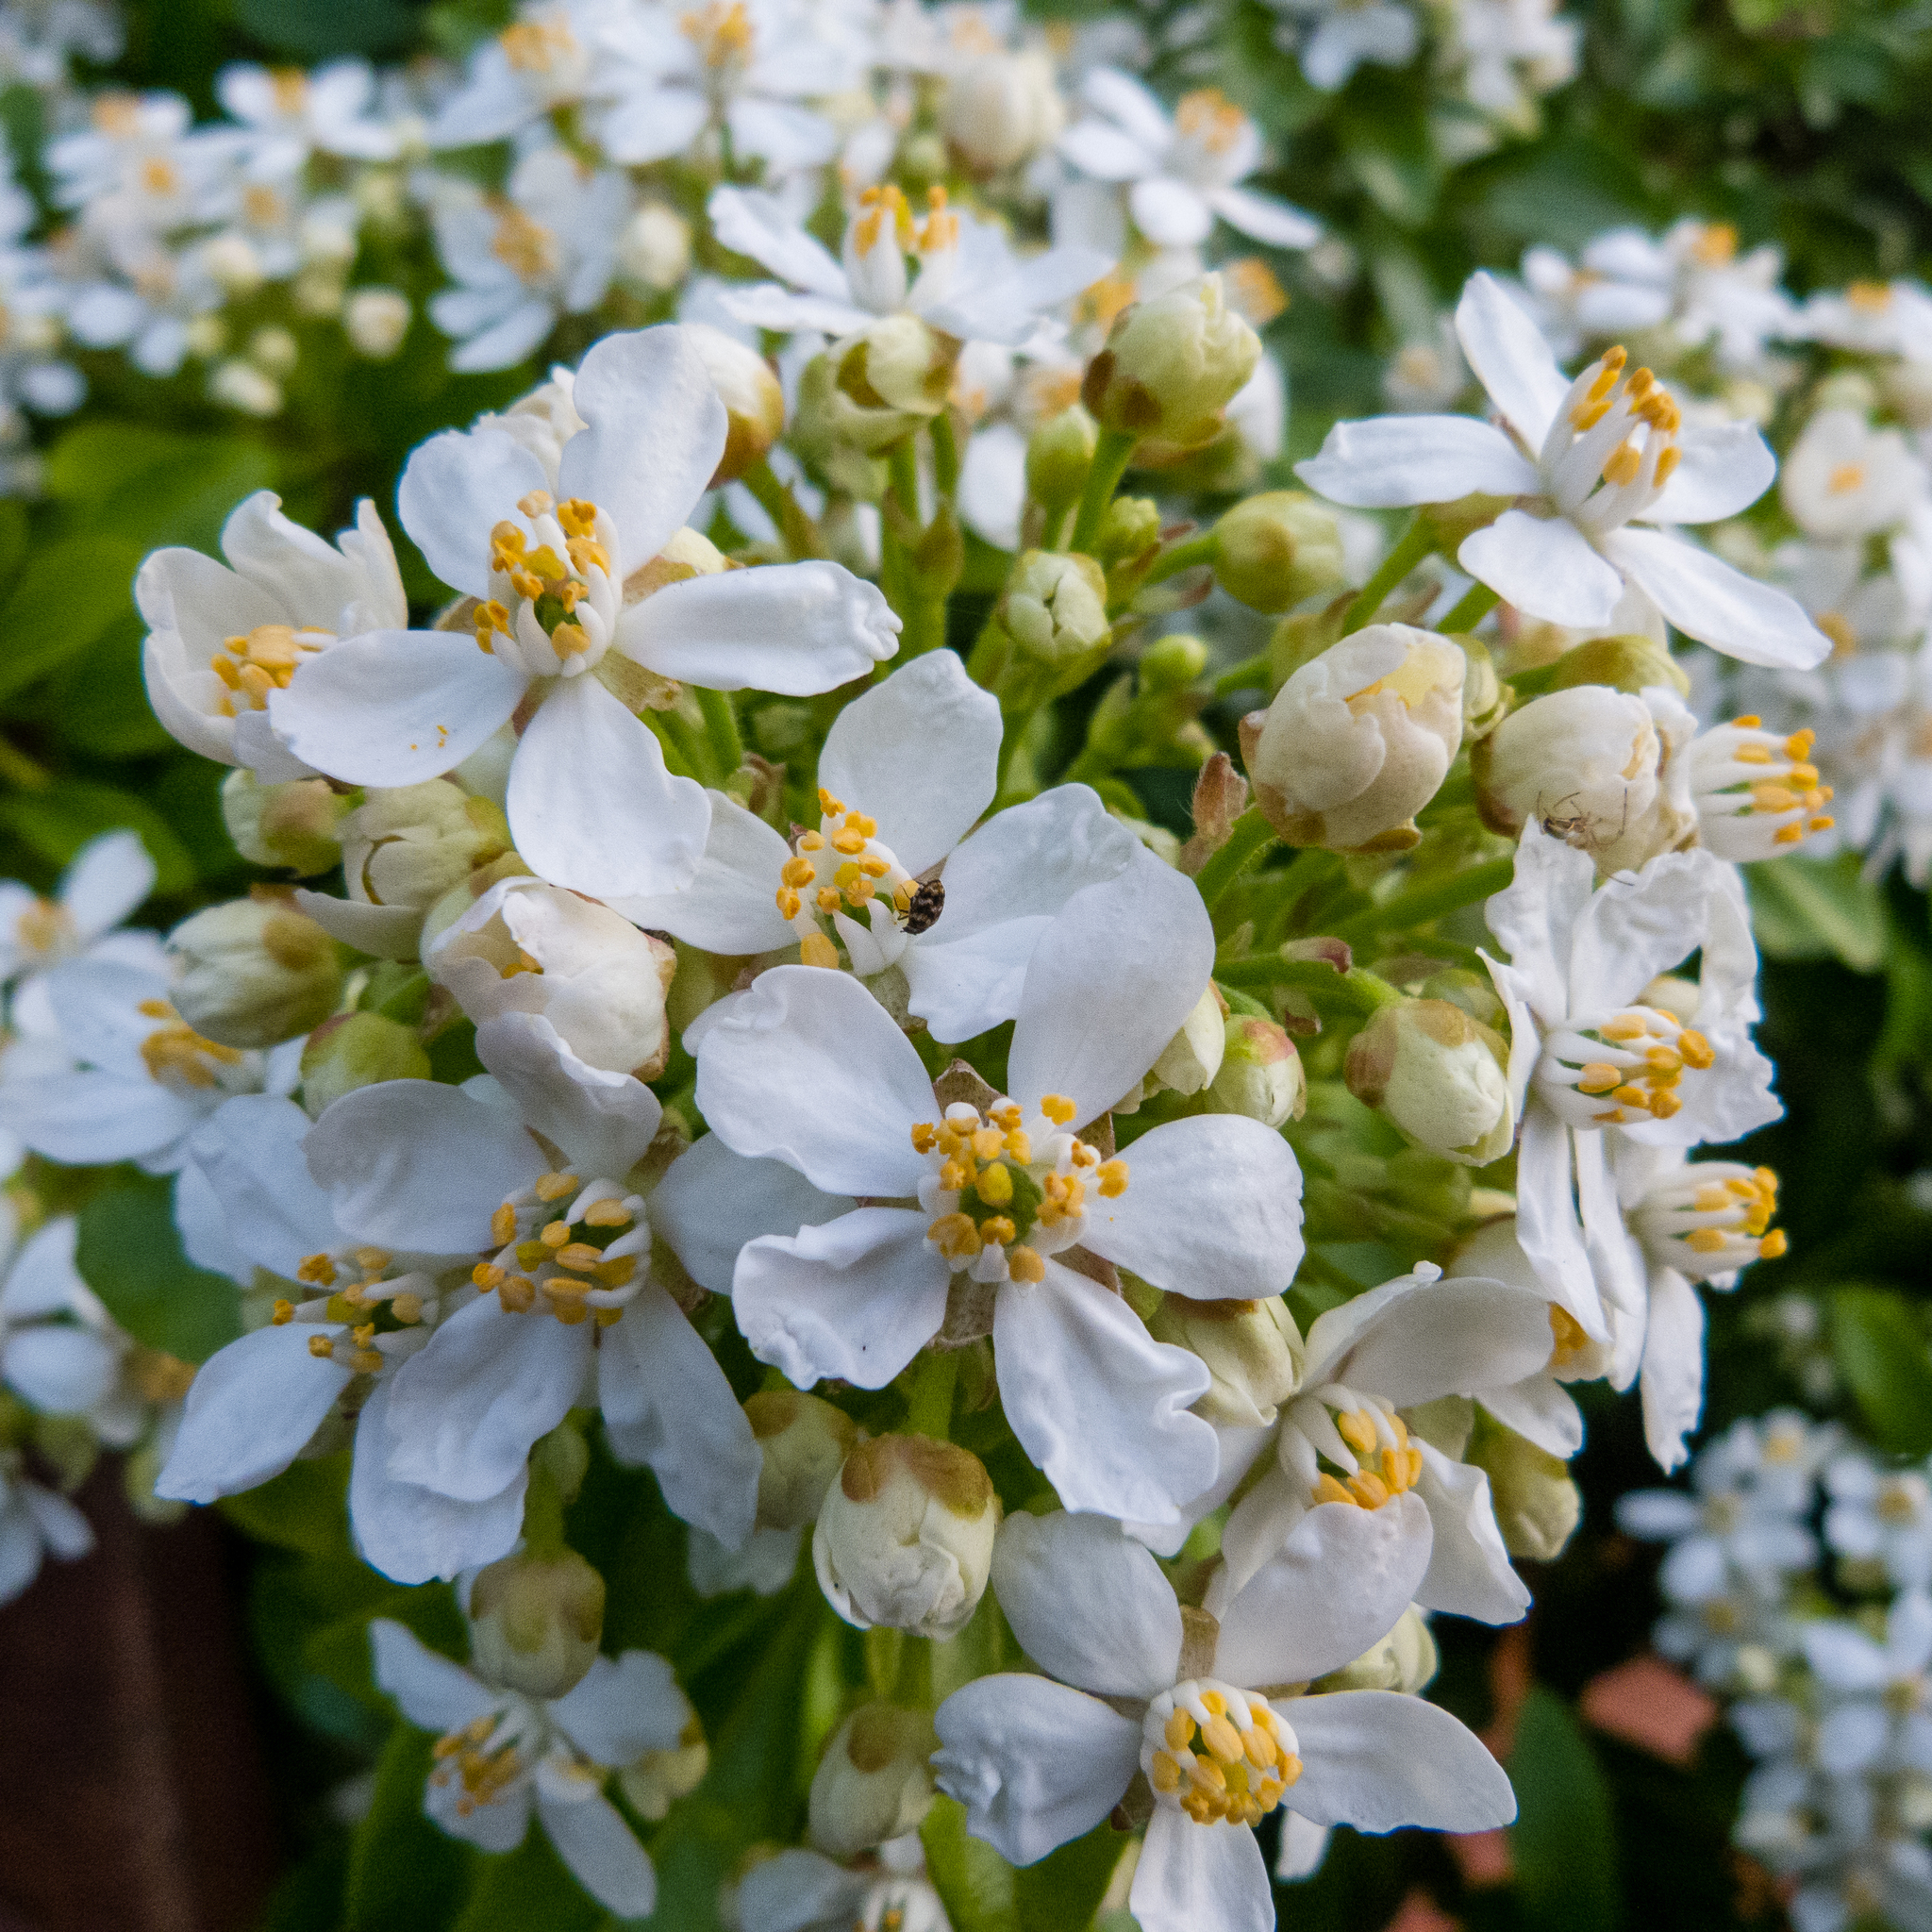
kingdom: Plantae
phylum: Tracheophyta
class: Magnoliopsida
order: Sapindales
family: Rutaceae
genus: Choisya
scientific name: Choisya ternata
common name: Mexican orange
